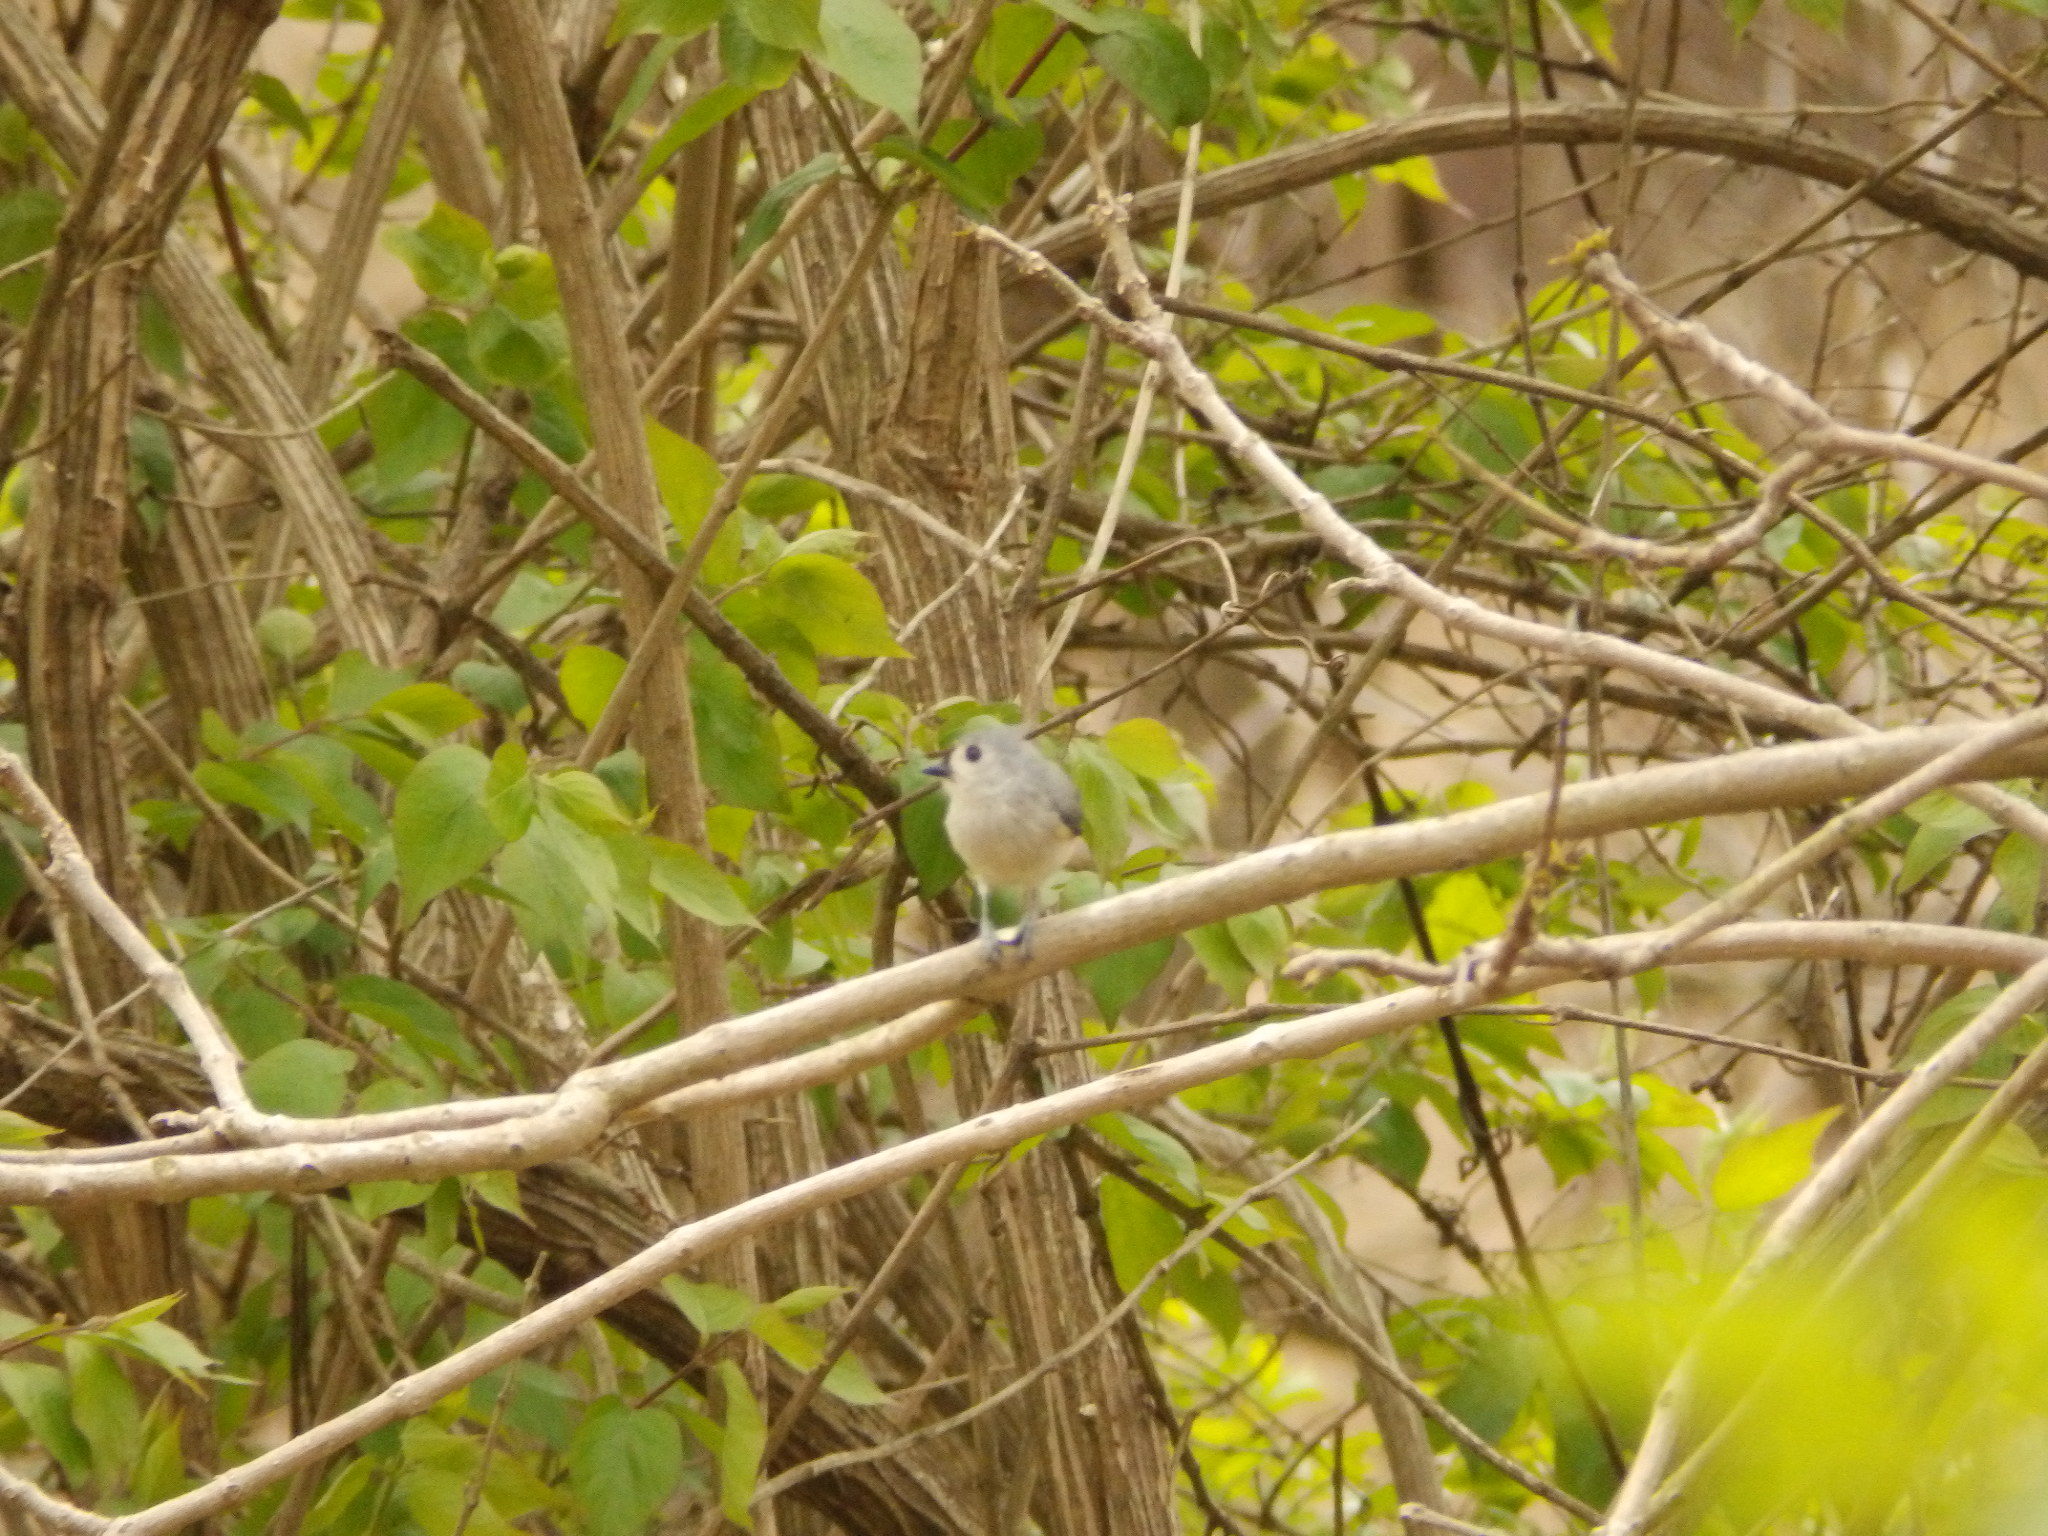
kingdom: Animalia
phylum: Chordata
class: Aves
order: Passeriformes
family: Paridae
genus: Baeolophus
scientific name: Baeolophus bicolor
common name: Tufted titmouse
